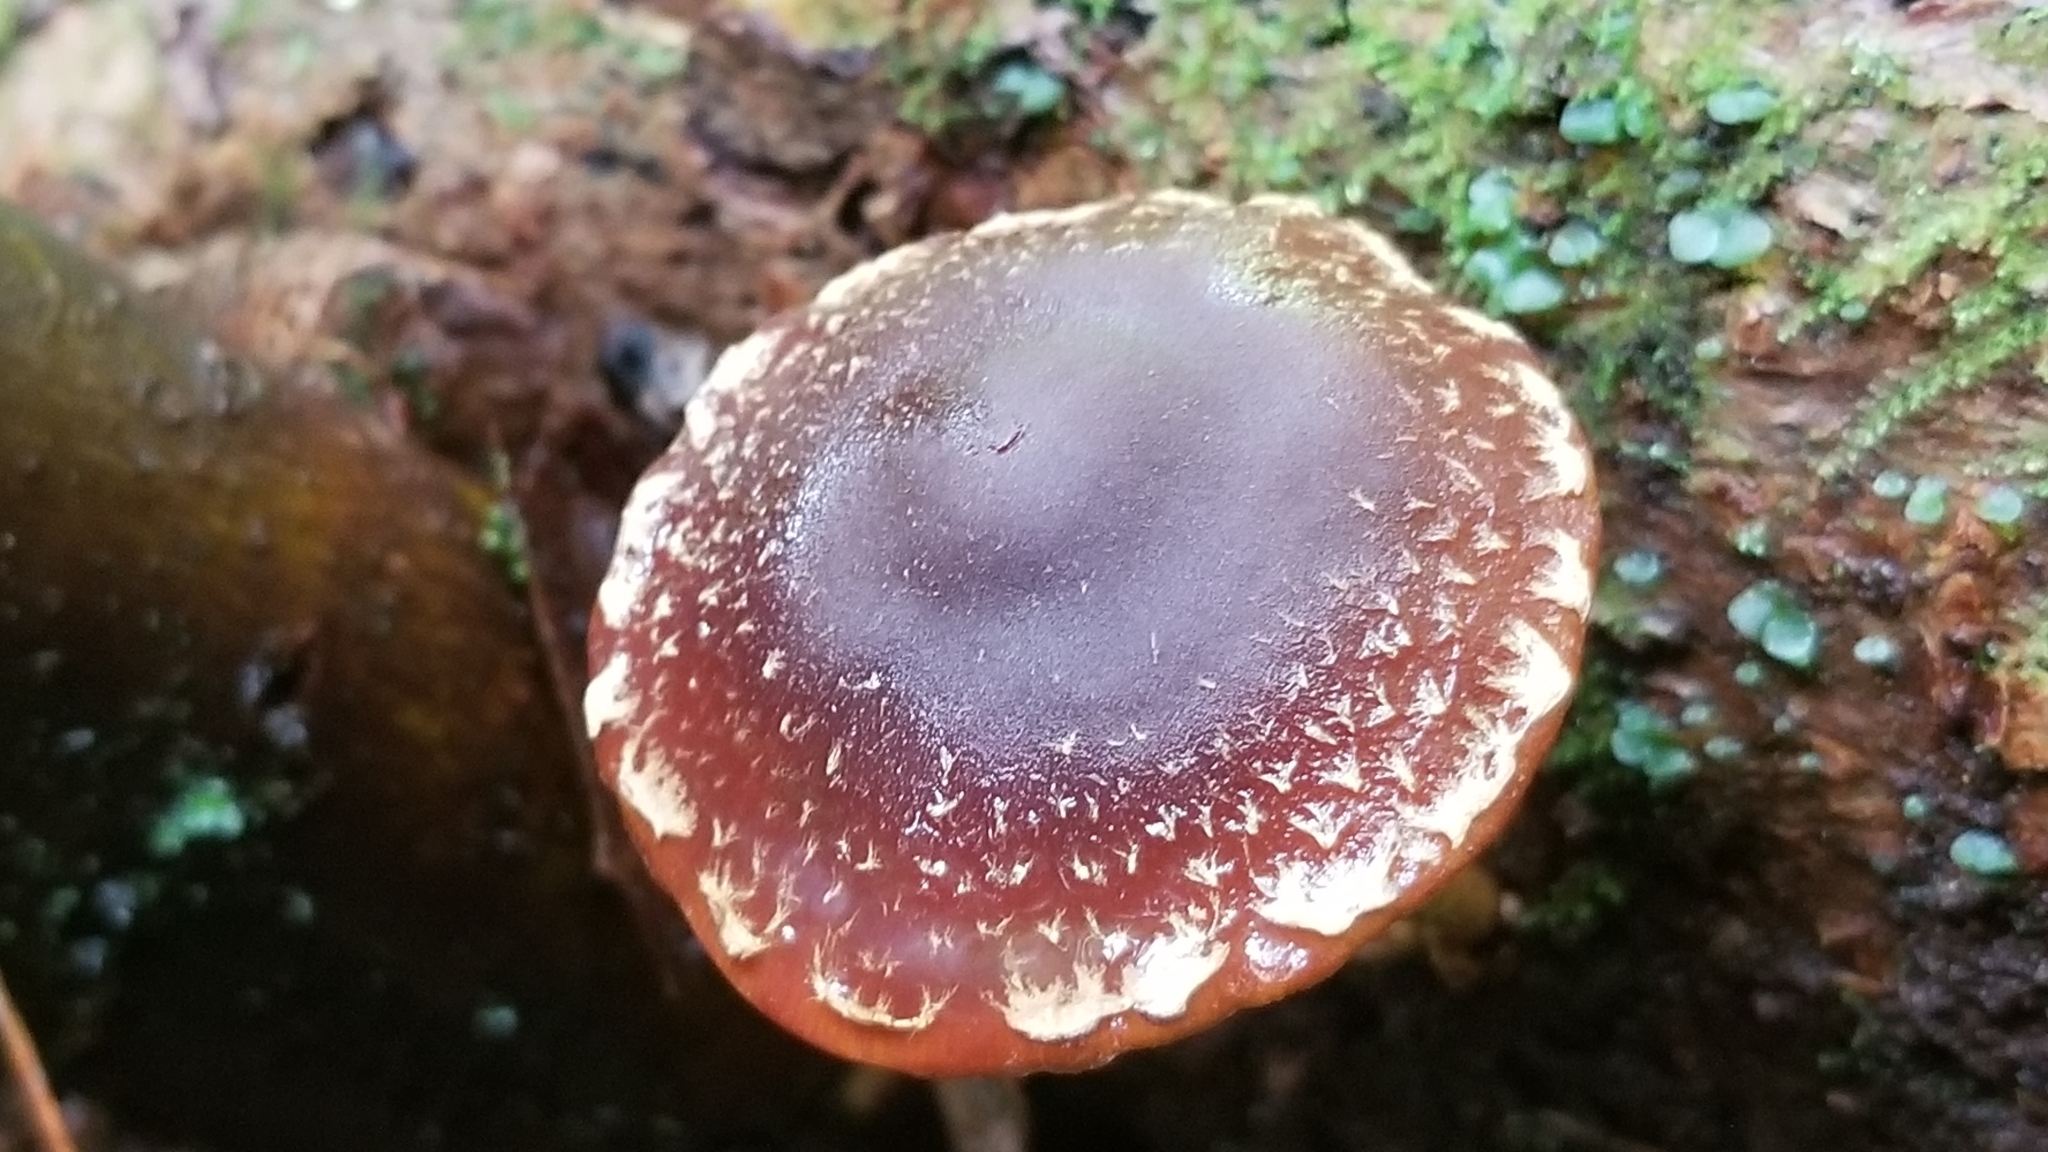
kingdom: Fungi
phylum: Basidiomycota
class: Agaricomycetes
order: Agaricales
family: Strophariaceae
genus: Hypholoma
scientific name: Hypholoma brunneum
